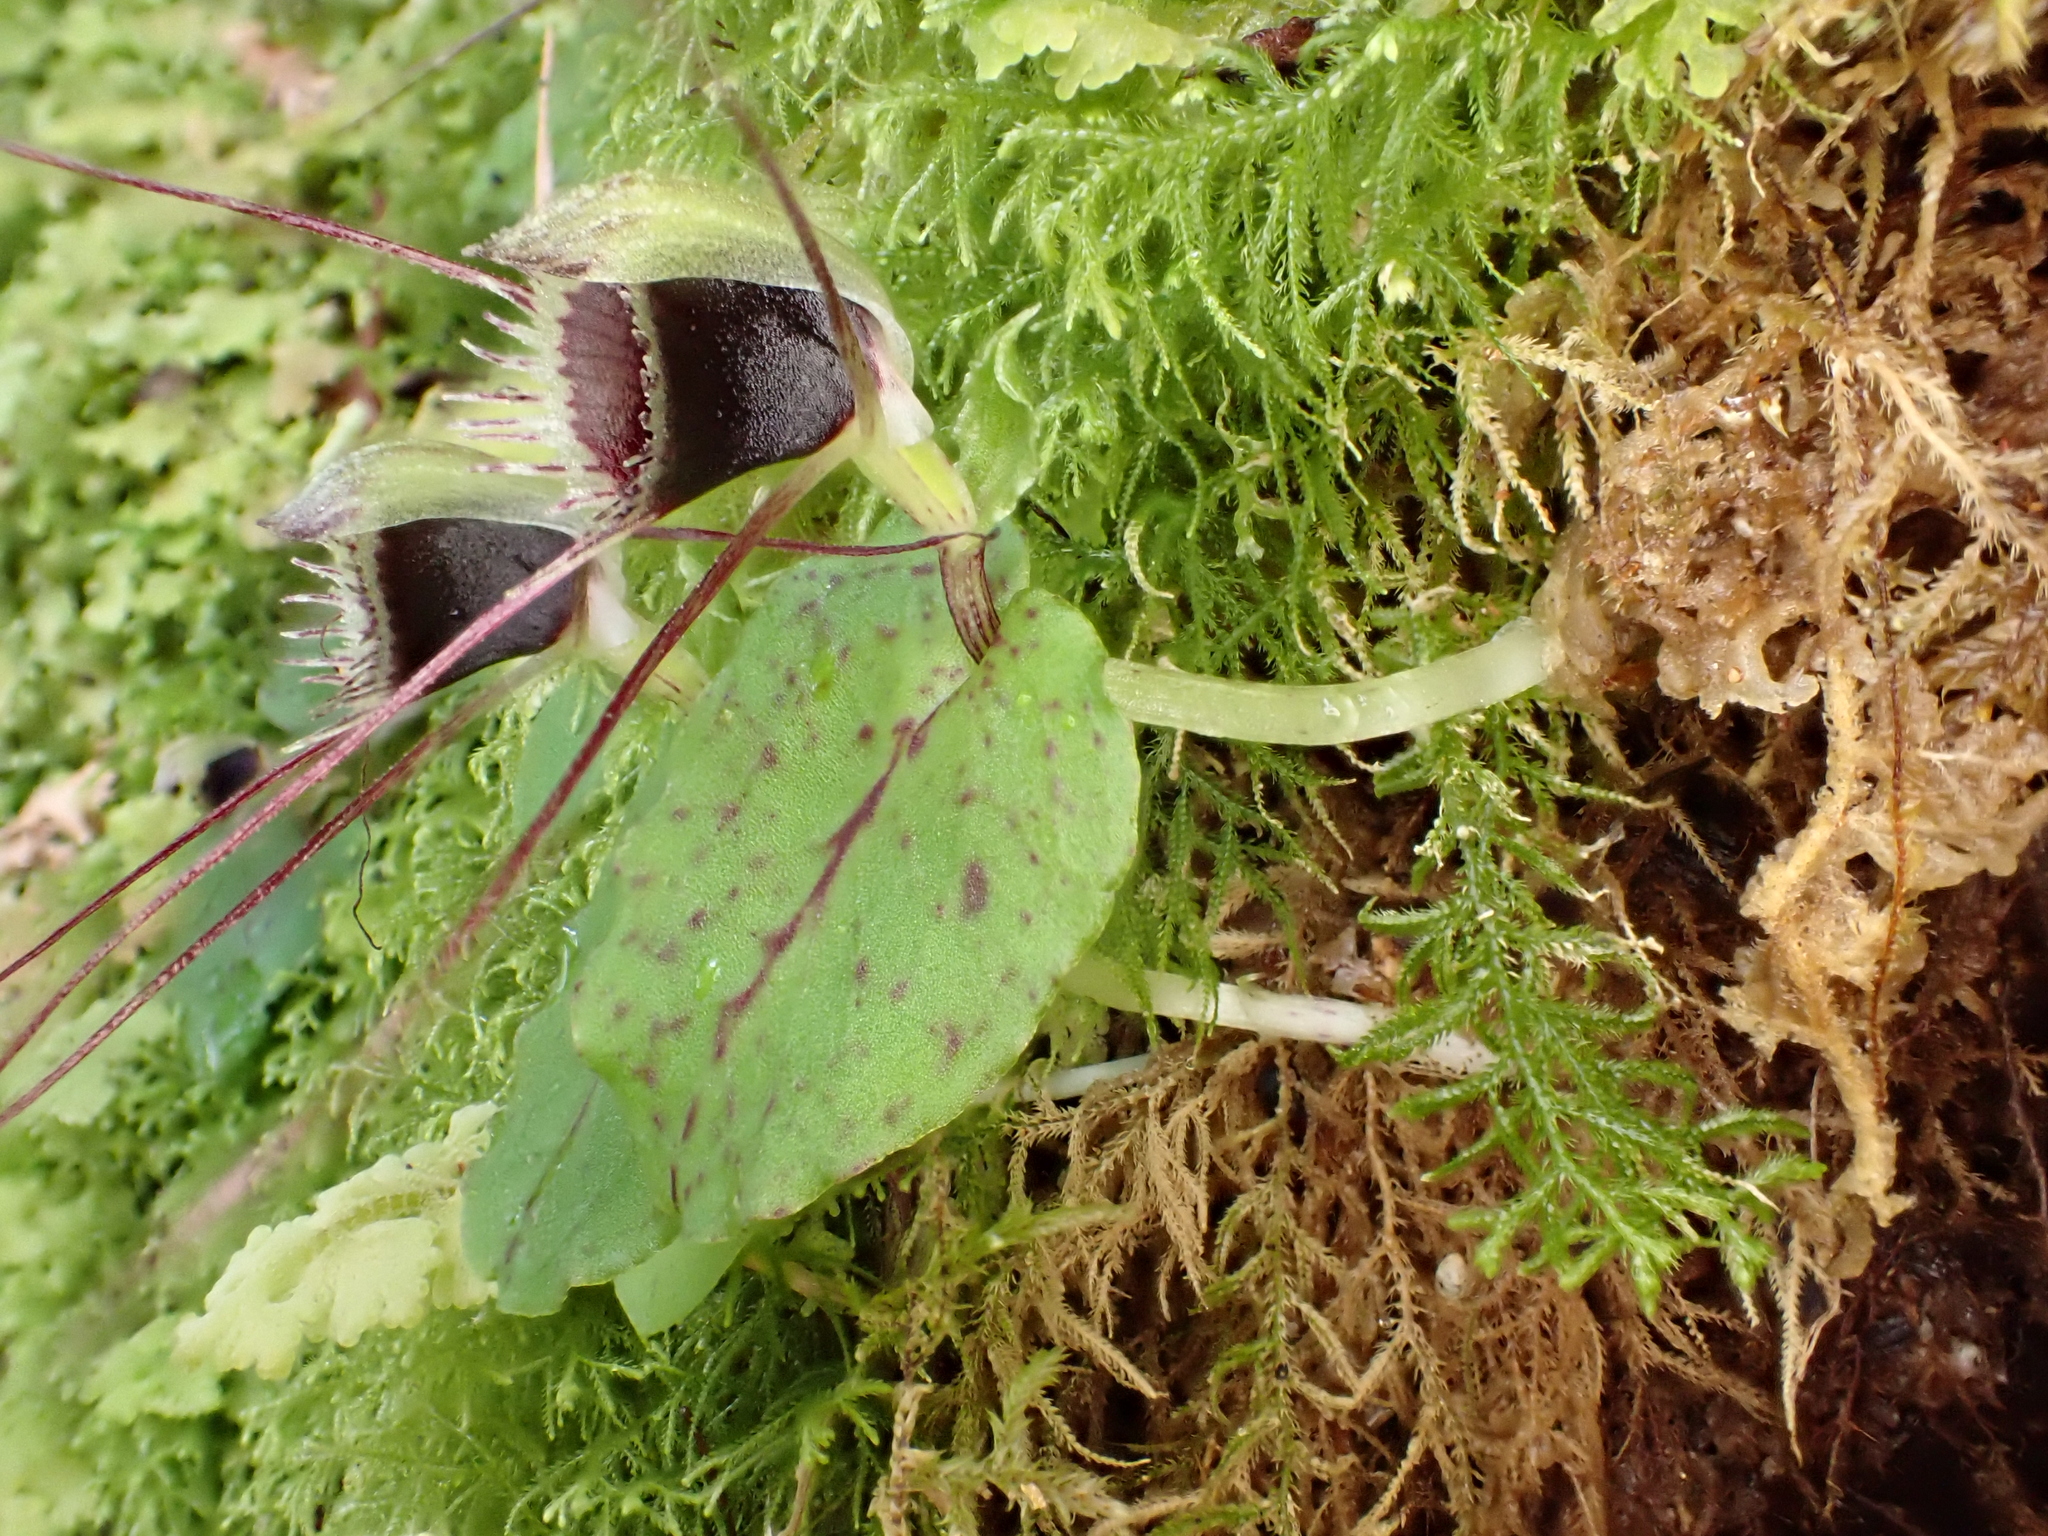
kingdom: Plantae
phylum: Tracheophyta
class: Liliopsida
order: Asparagales
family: Orchidaceae
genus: Corybas
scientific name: Corybas oblongus
